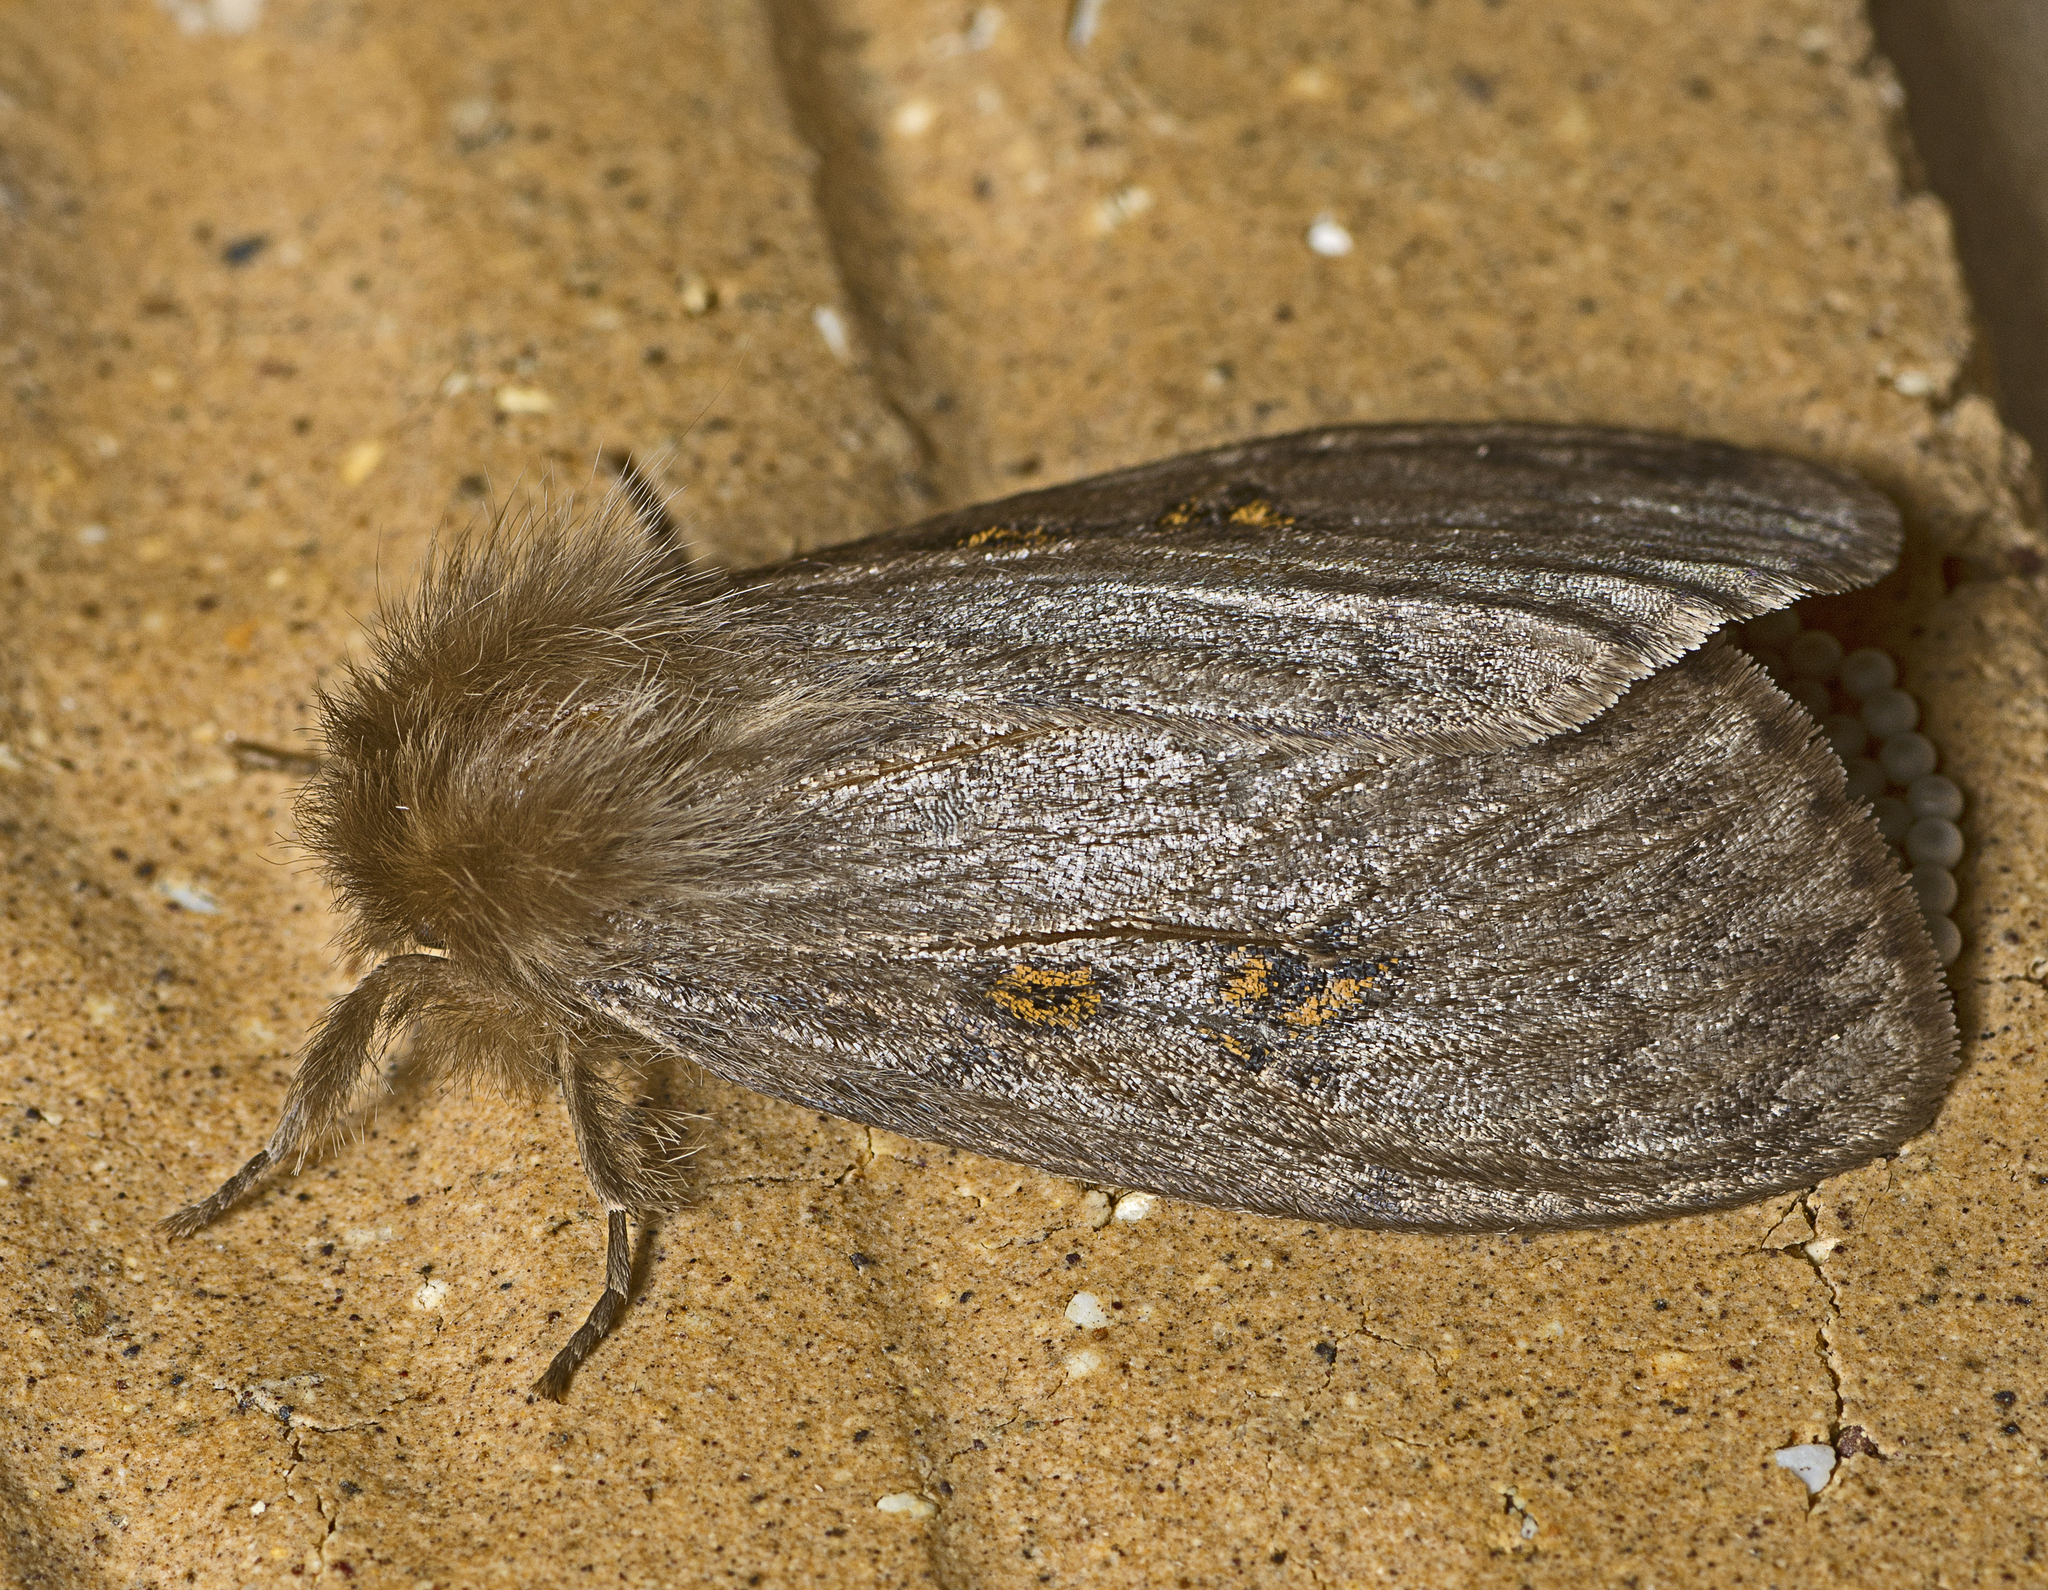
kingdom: Animalia
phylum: Arthropoda
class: Insecta
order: Lepidoptera
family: Erebidae
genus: Leptocneria
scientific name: Leptocneria reducta
